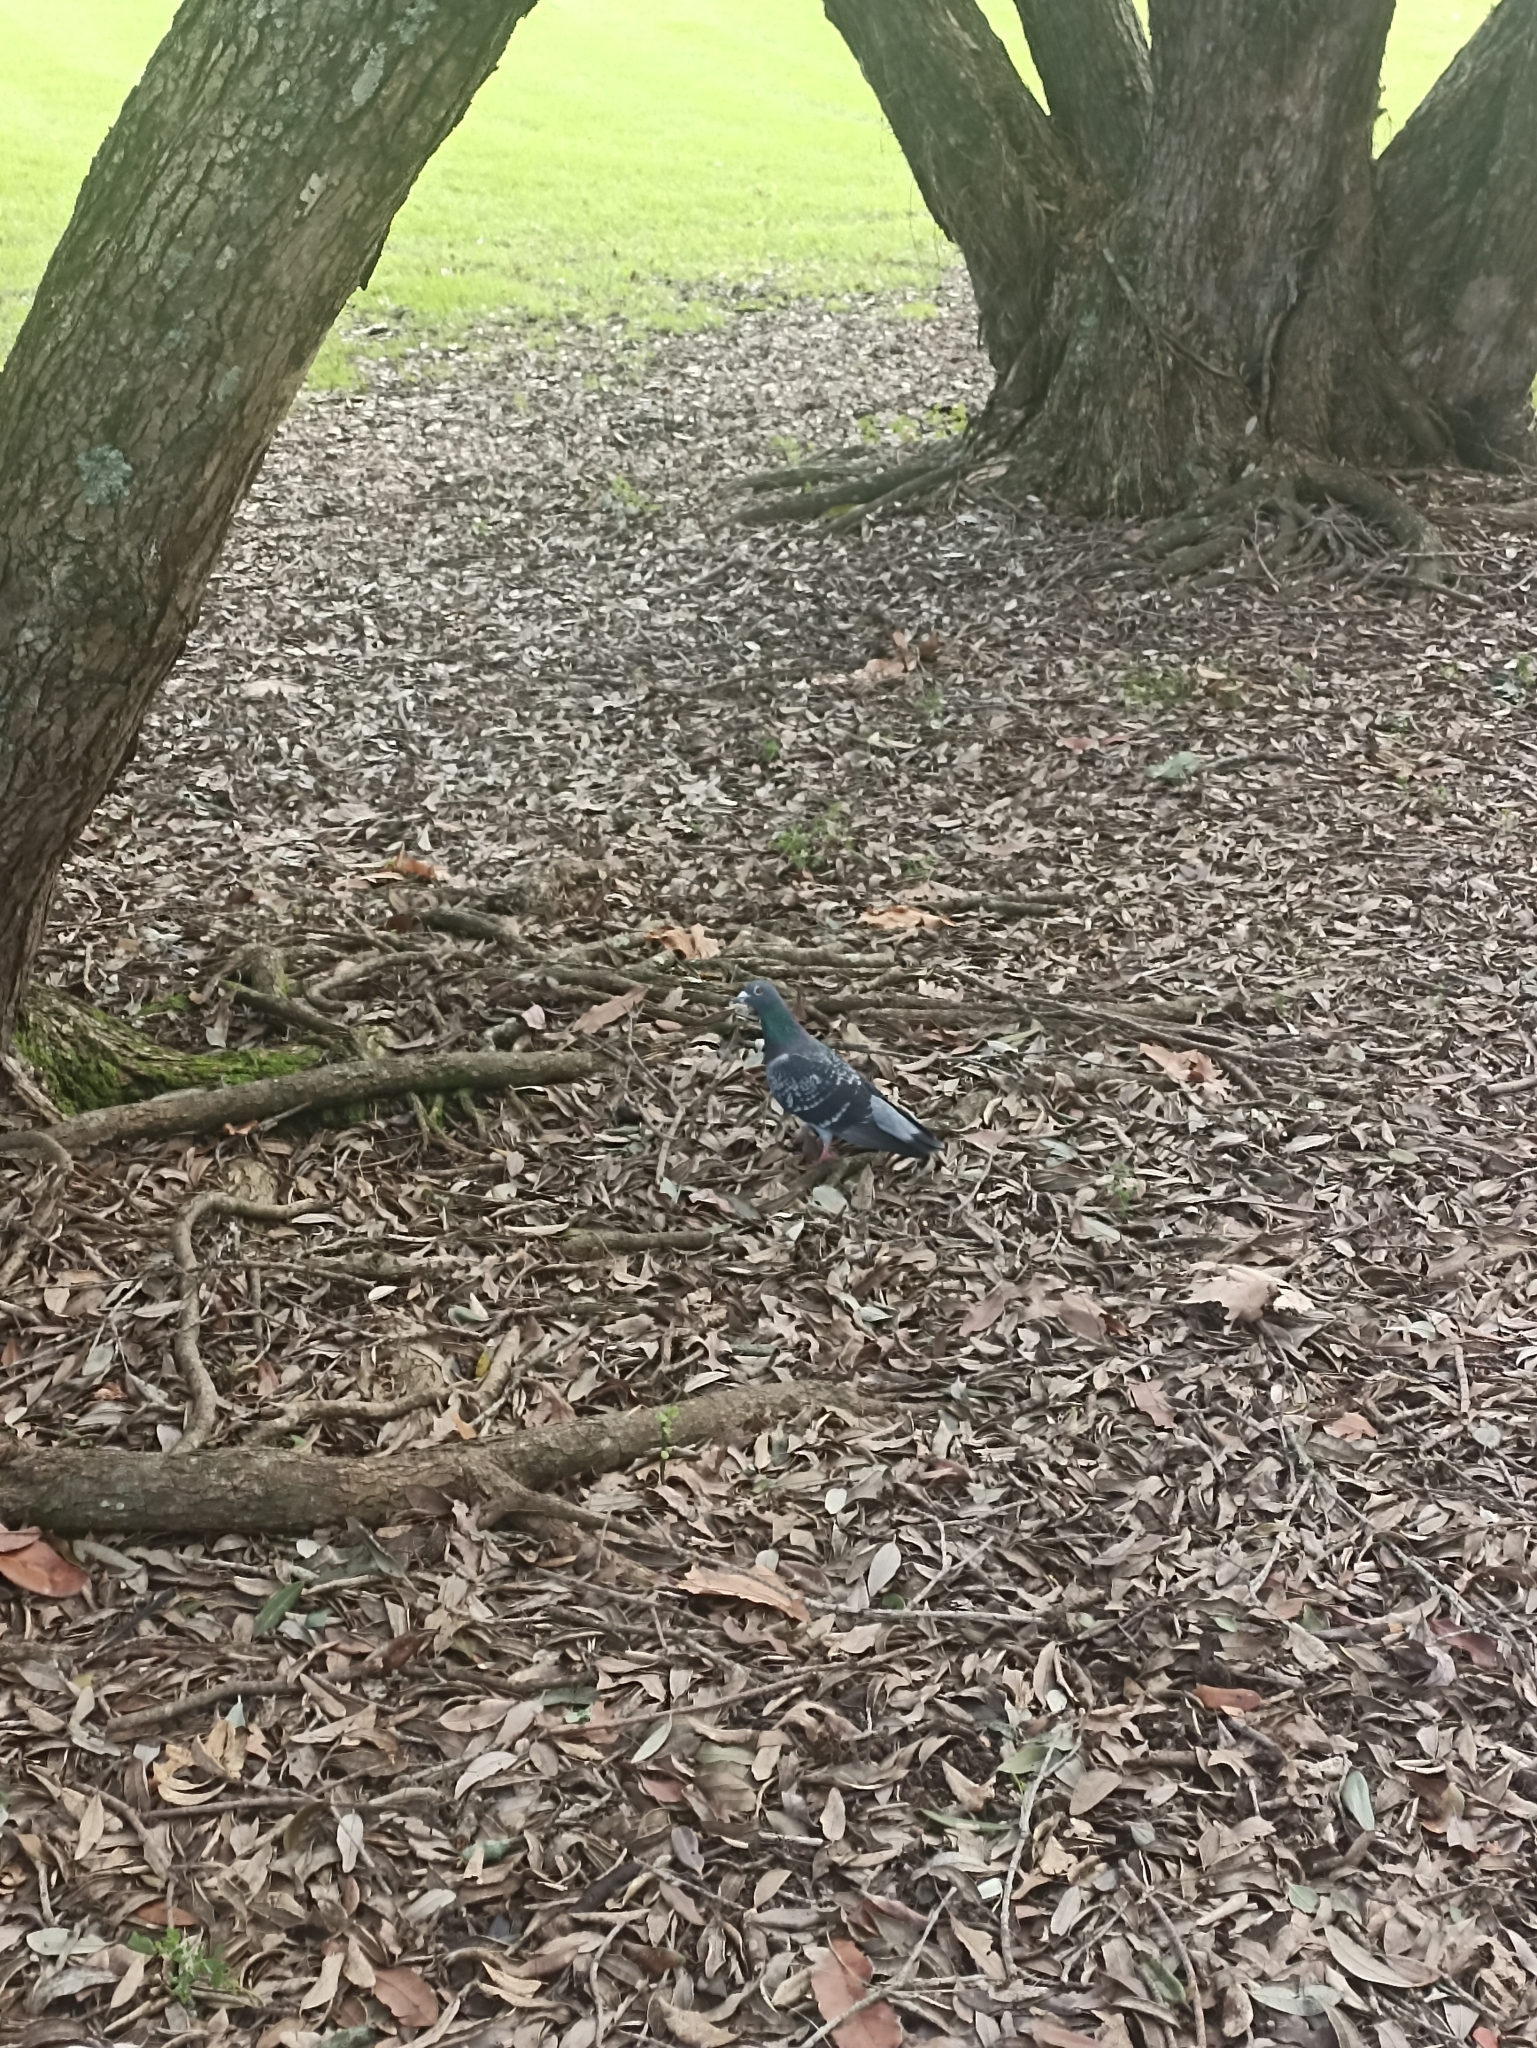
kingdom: Animalia
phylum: Chordata
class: Aves
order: Columbiformes
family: Columbidae
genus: Columba
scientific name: Columba livia
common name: Rock pigeon
